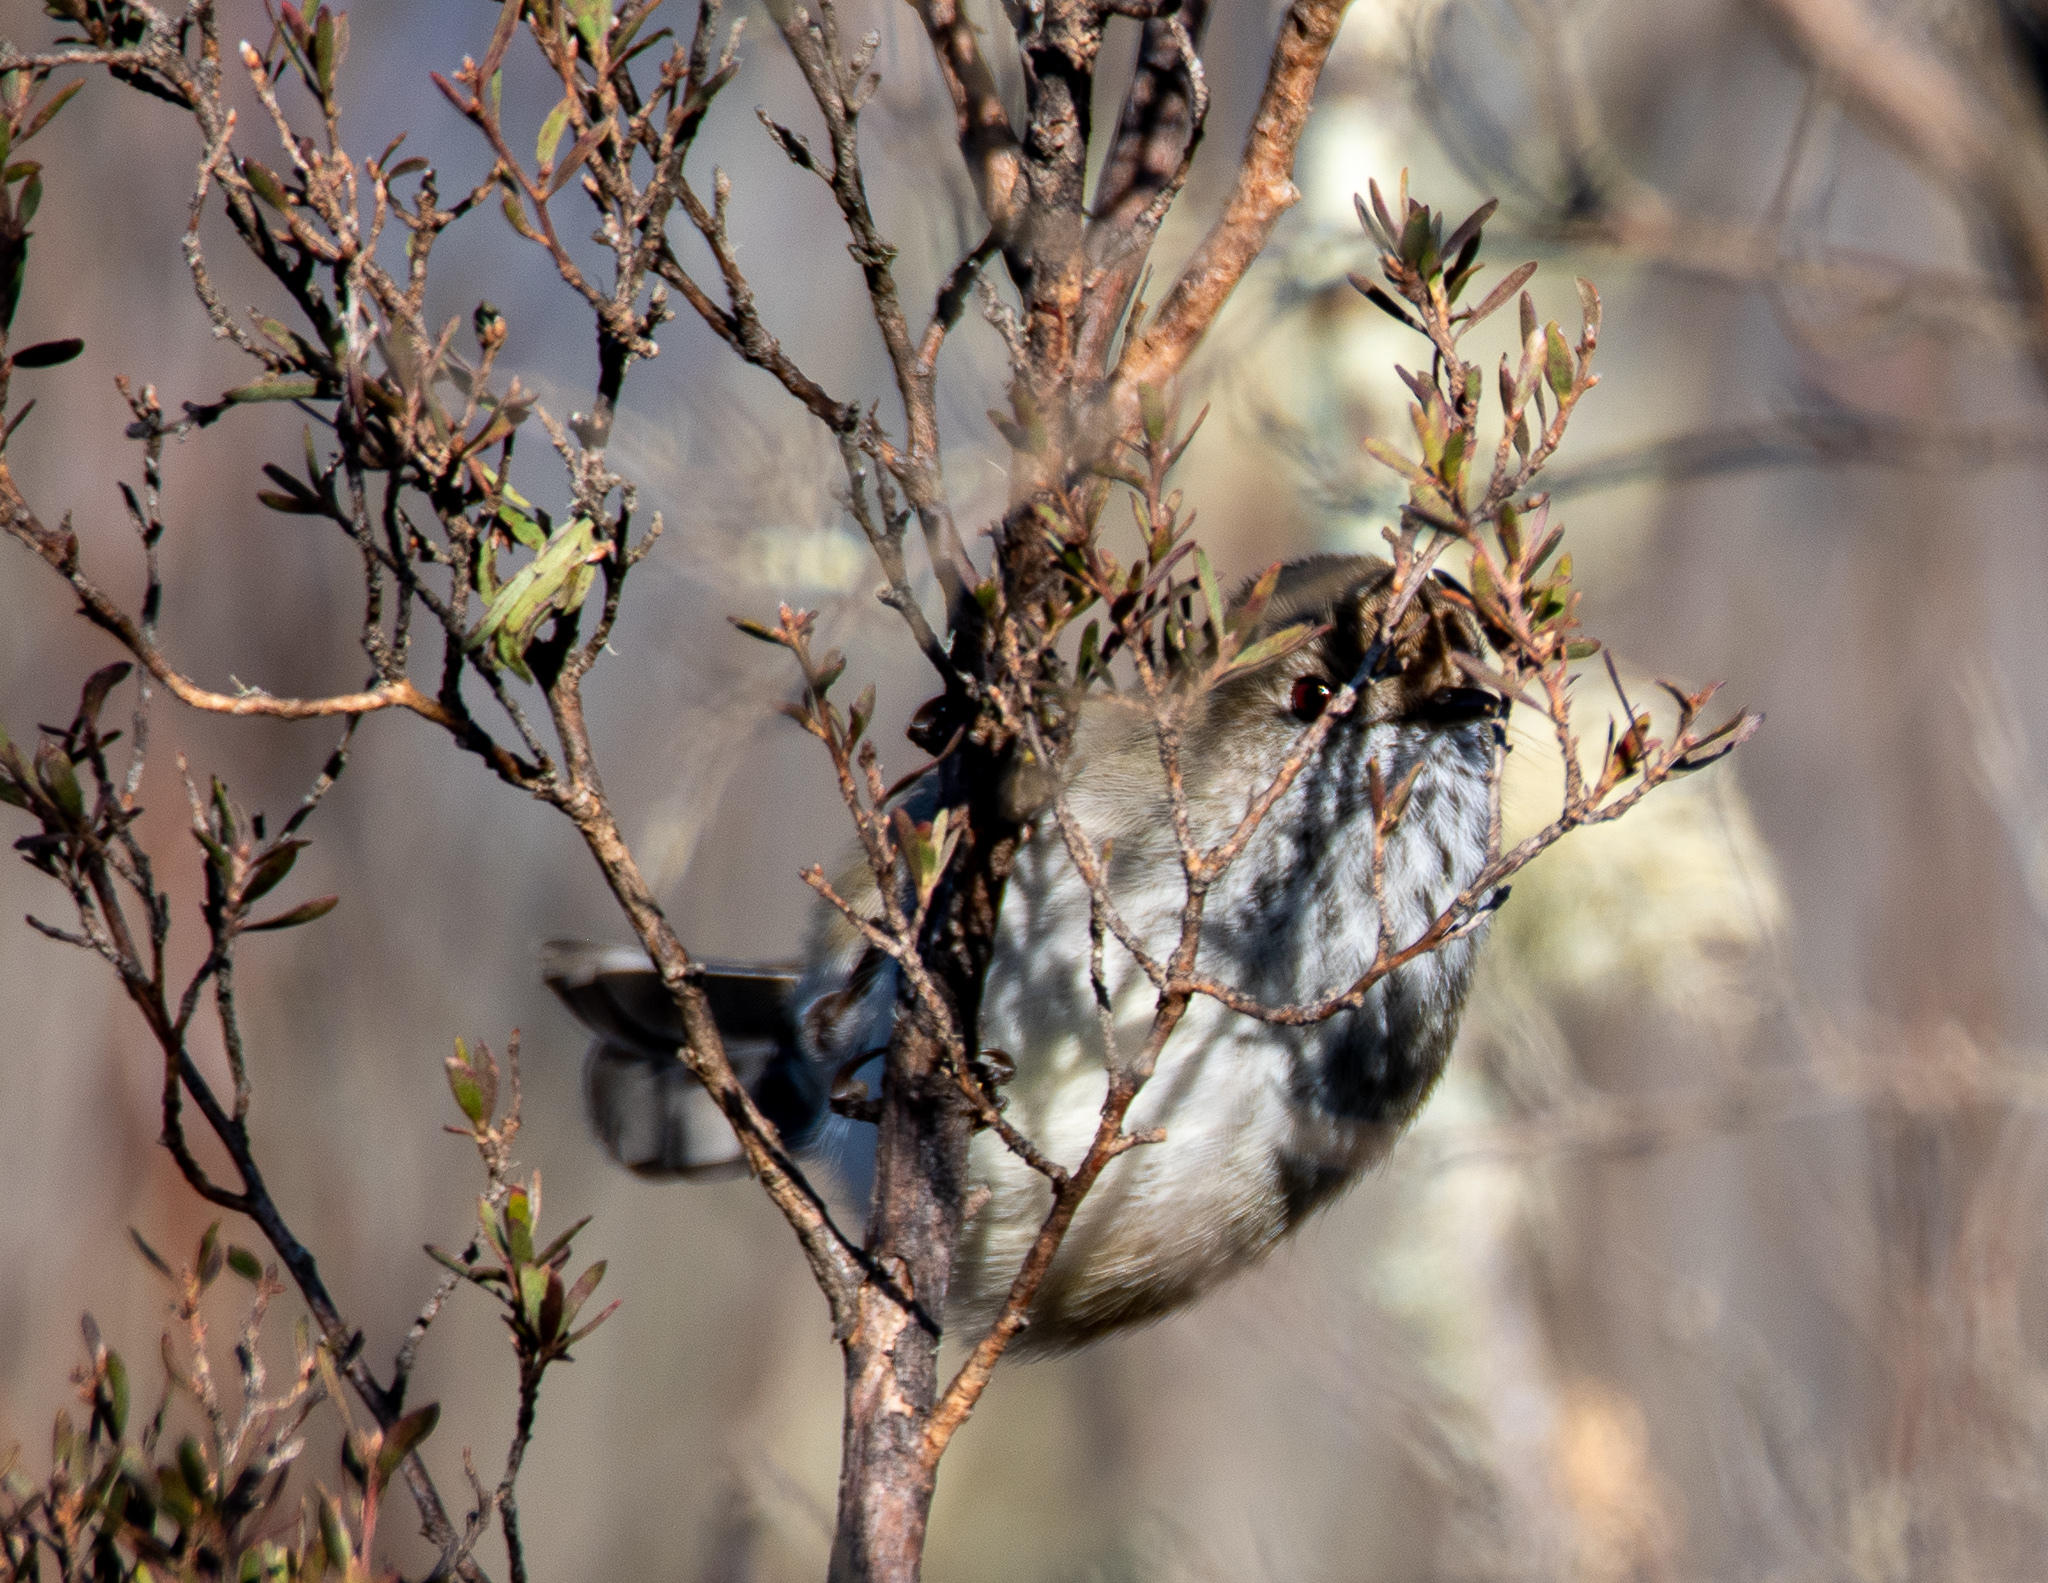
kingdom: Animalia
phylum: Chordata
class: Aves
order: Passeriformes
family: Acanthizidae
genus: Acanthiza
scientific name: Acanthiza pusilla
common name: Brown thornbill
